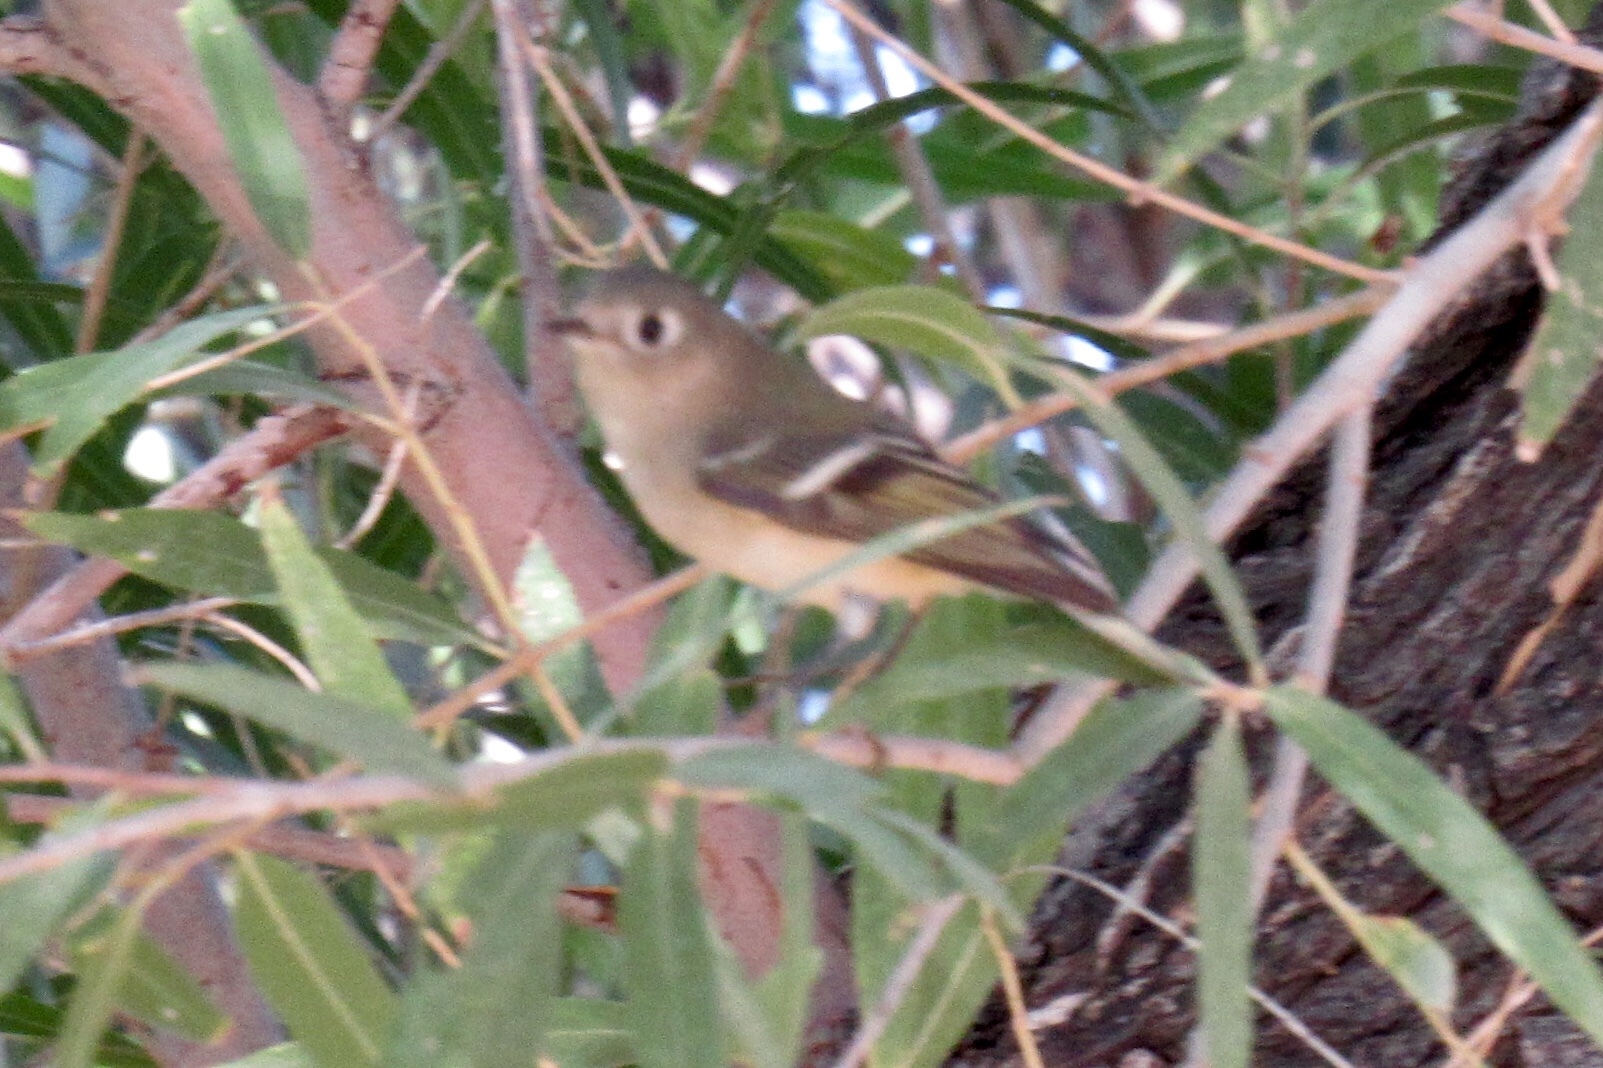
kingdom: Animalia
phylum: Chordata
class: Aves
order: Passeriformes
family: Regulidae
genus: Regulus
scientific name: Regulus calendula
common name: Ruby-crowned kinglet
